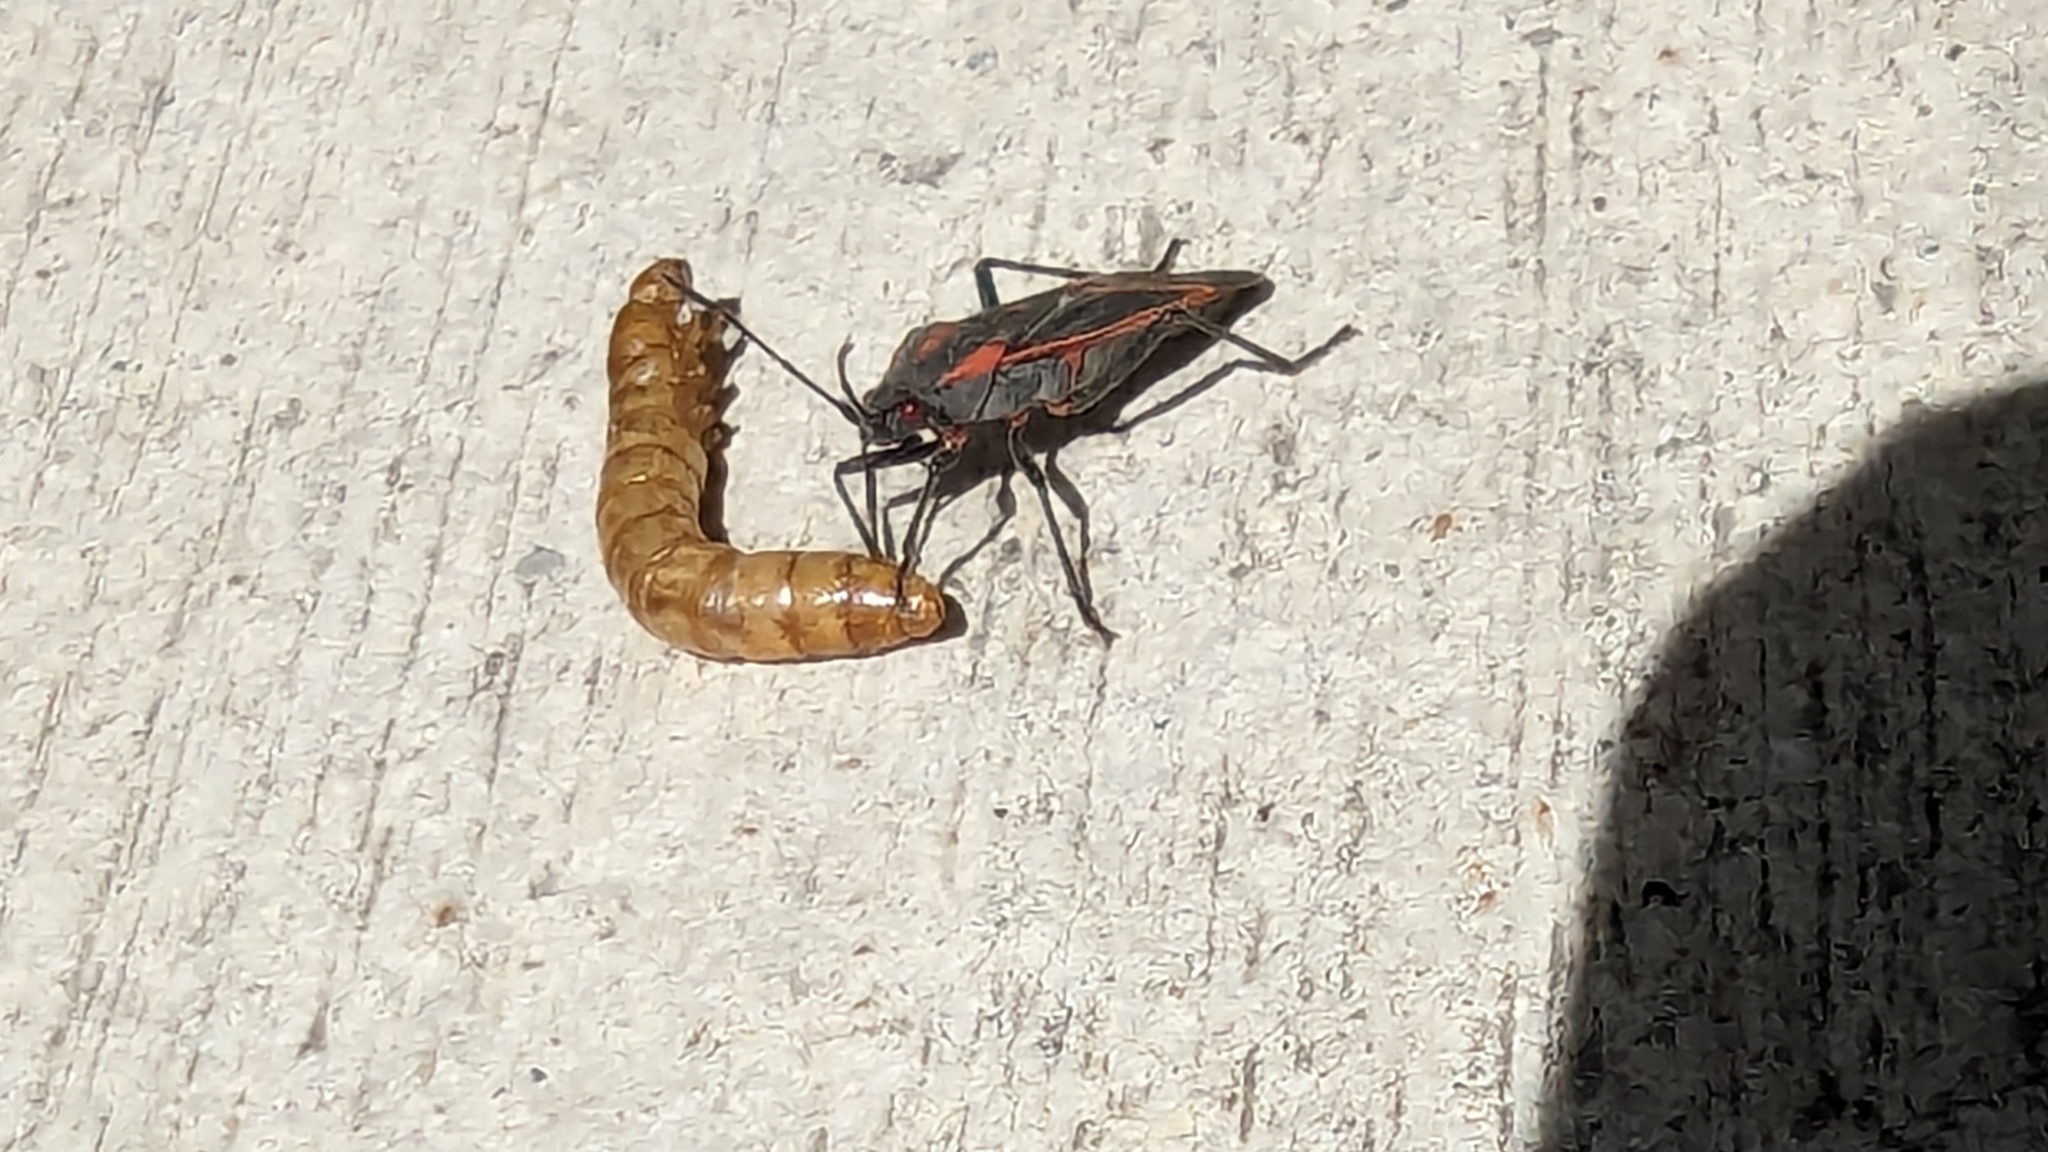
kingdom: Animalia
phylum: Arthropoda
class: Insecta
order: Hemiptera
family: Rhopalidae
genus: Boisea
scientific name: Boisea trivittata
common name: Boxelder bug
